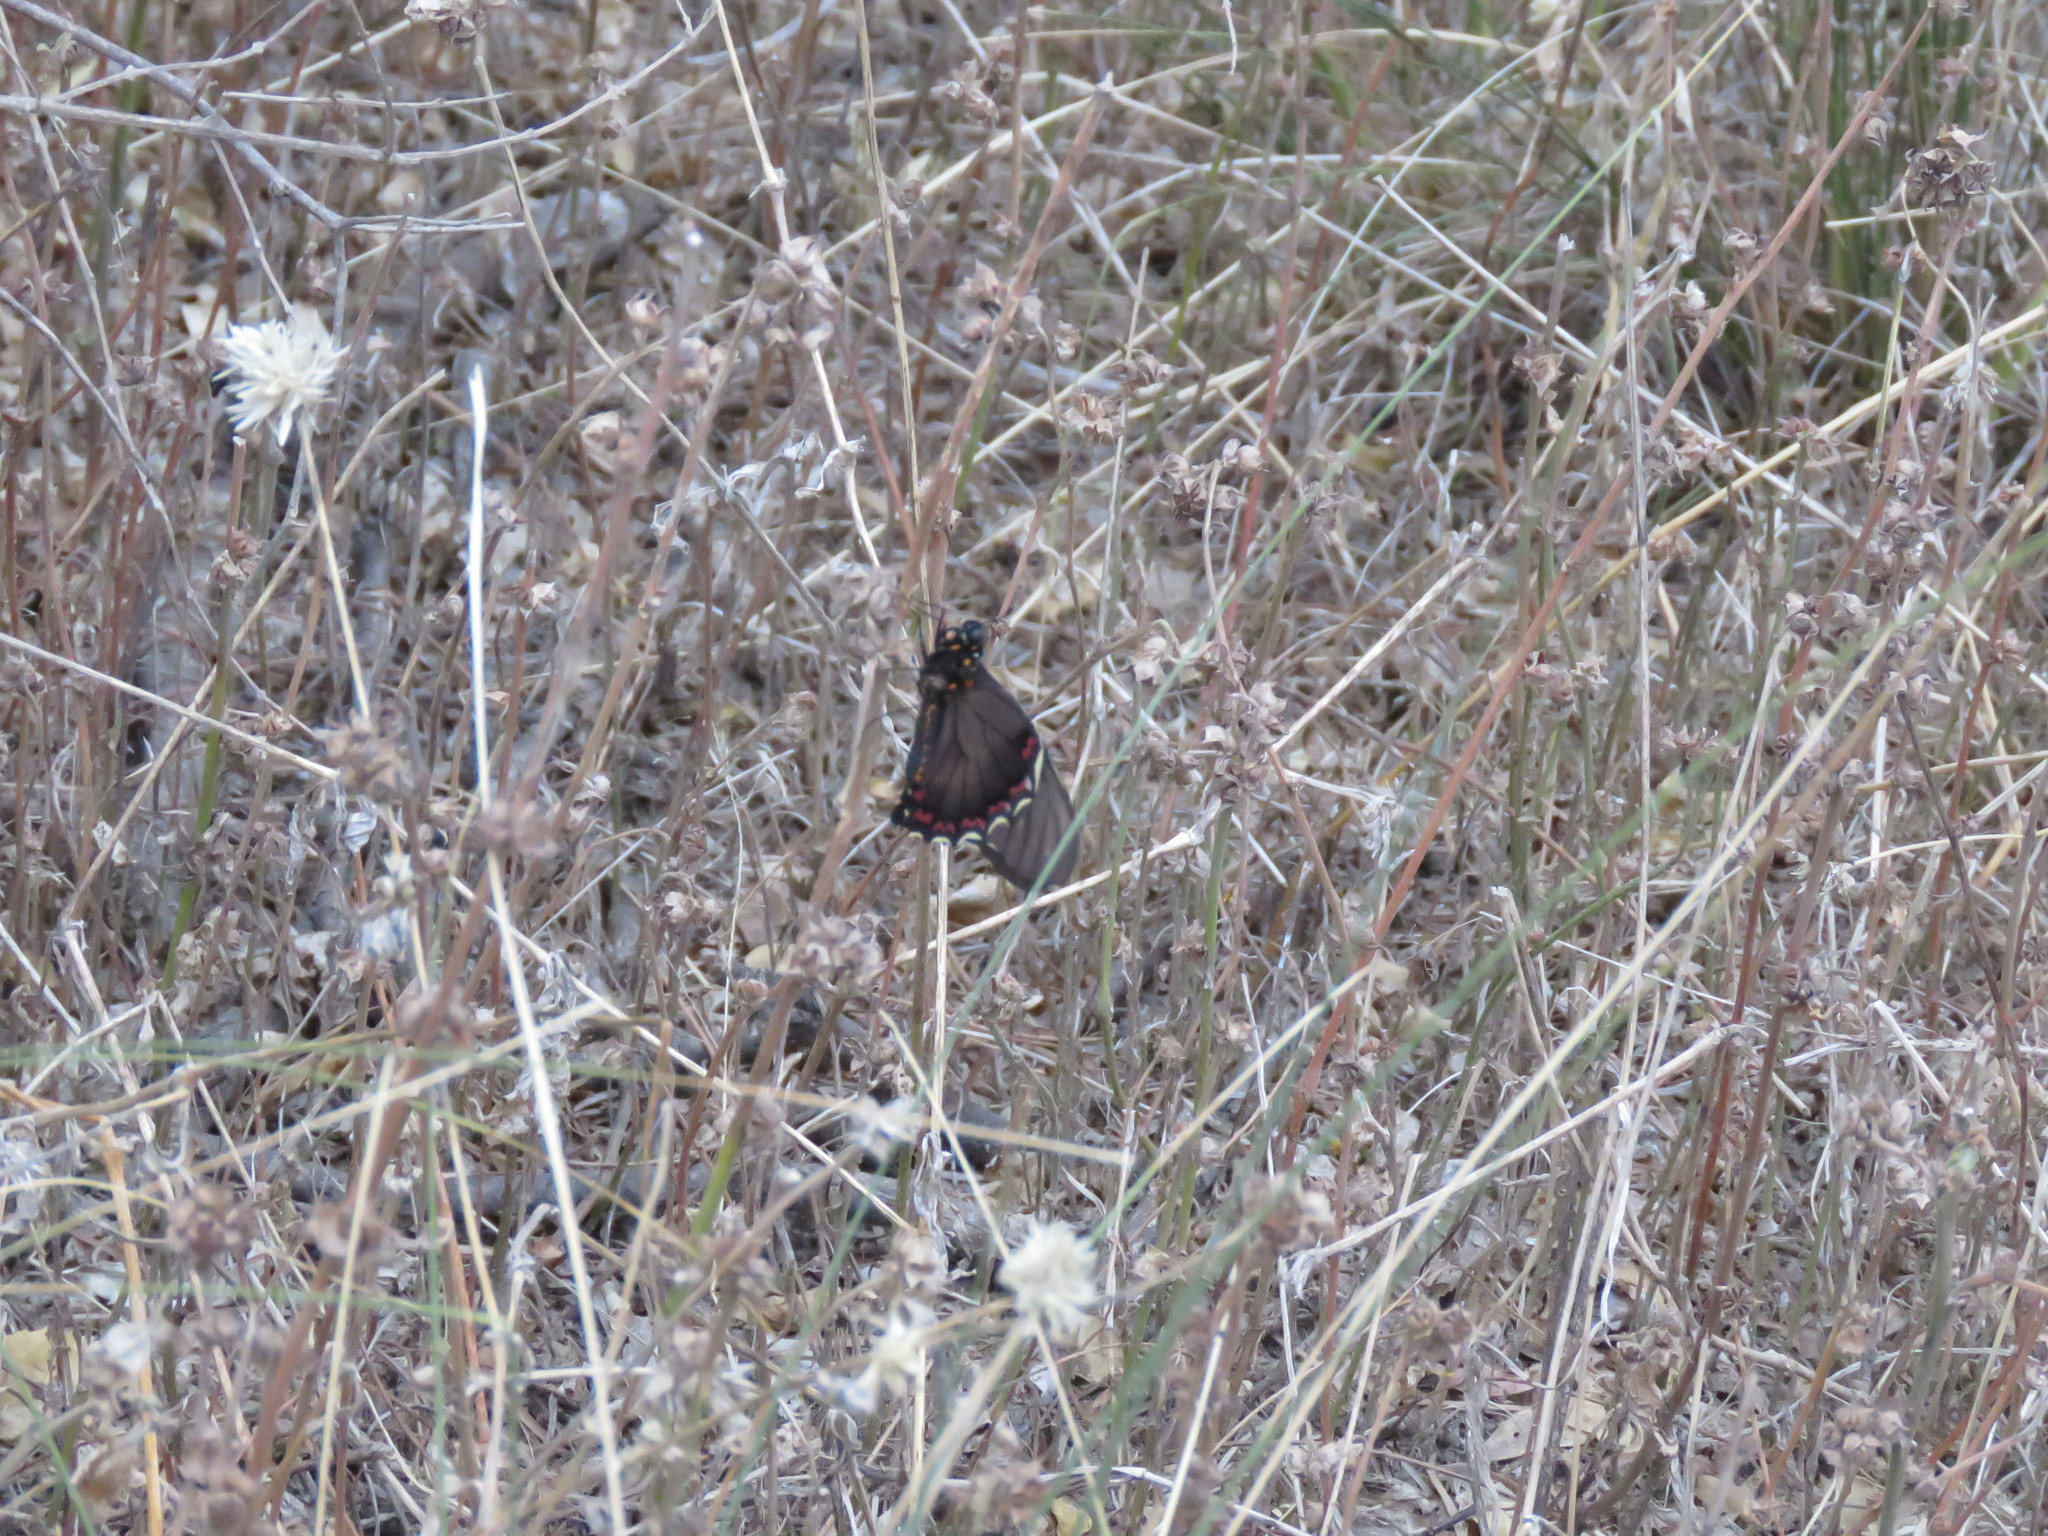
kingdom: Animalia
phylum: Arthropoda
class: Insecta
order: Lepidoptera
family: Papilionidae
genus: Battus
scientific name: Battus polydamas
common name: Polydamas swallowtail
